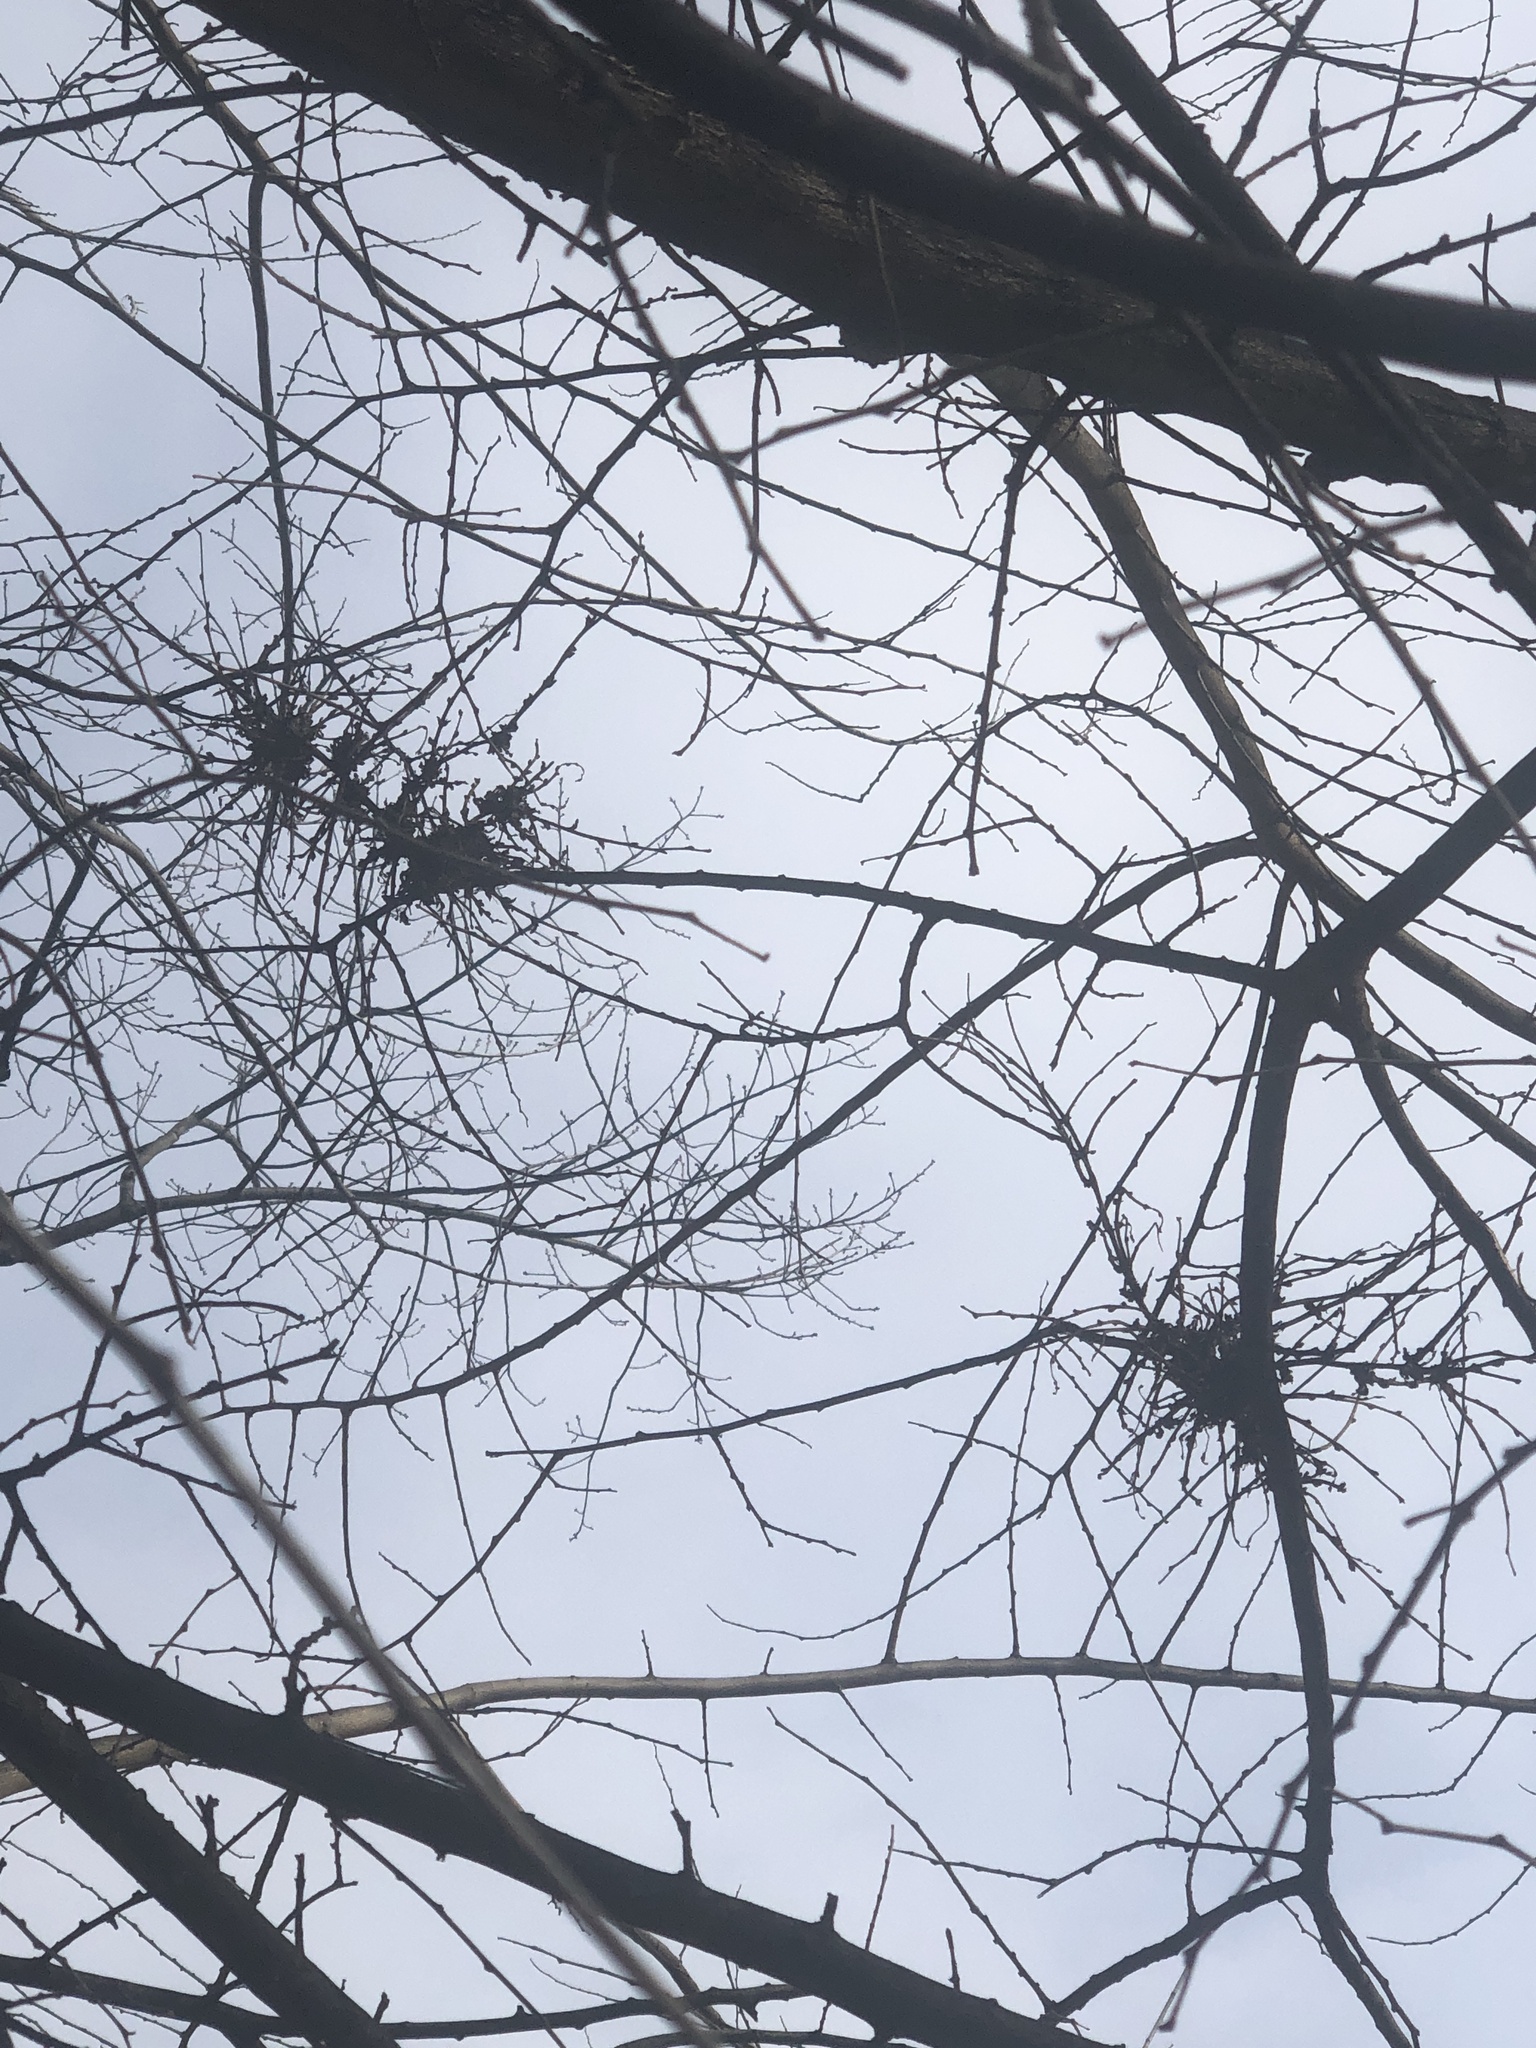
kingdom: Animalia
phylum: Arthropoda
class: Arachnida
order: Trombidiformes
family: Eriophyidae
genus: Aceria
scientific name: Aceria
